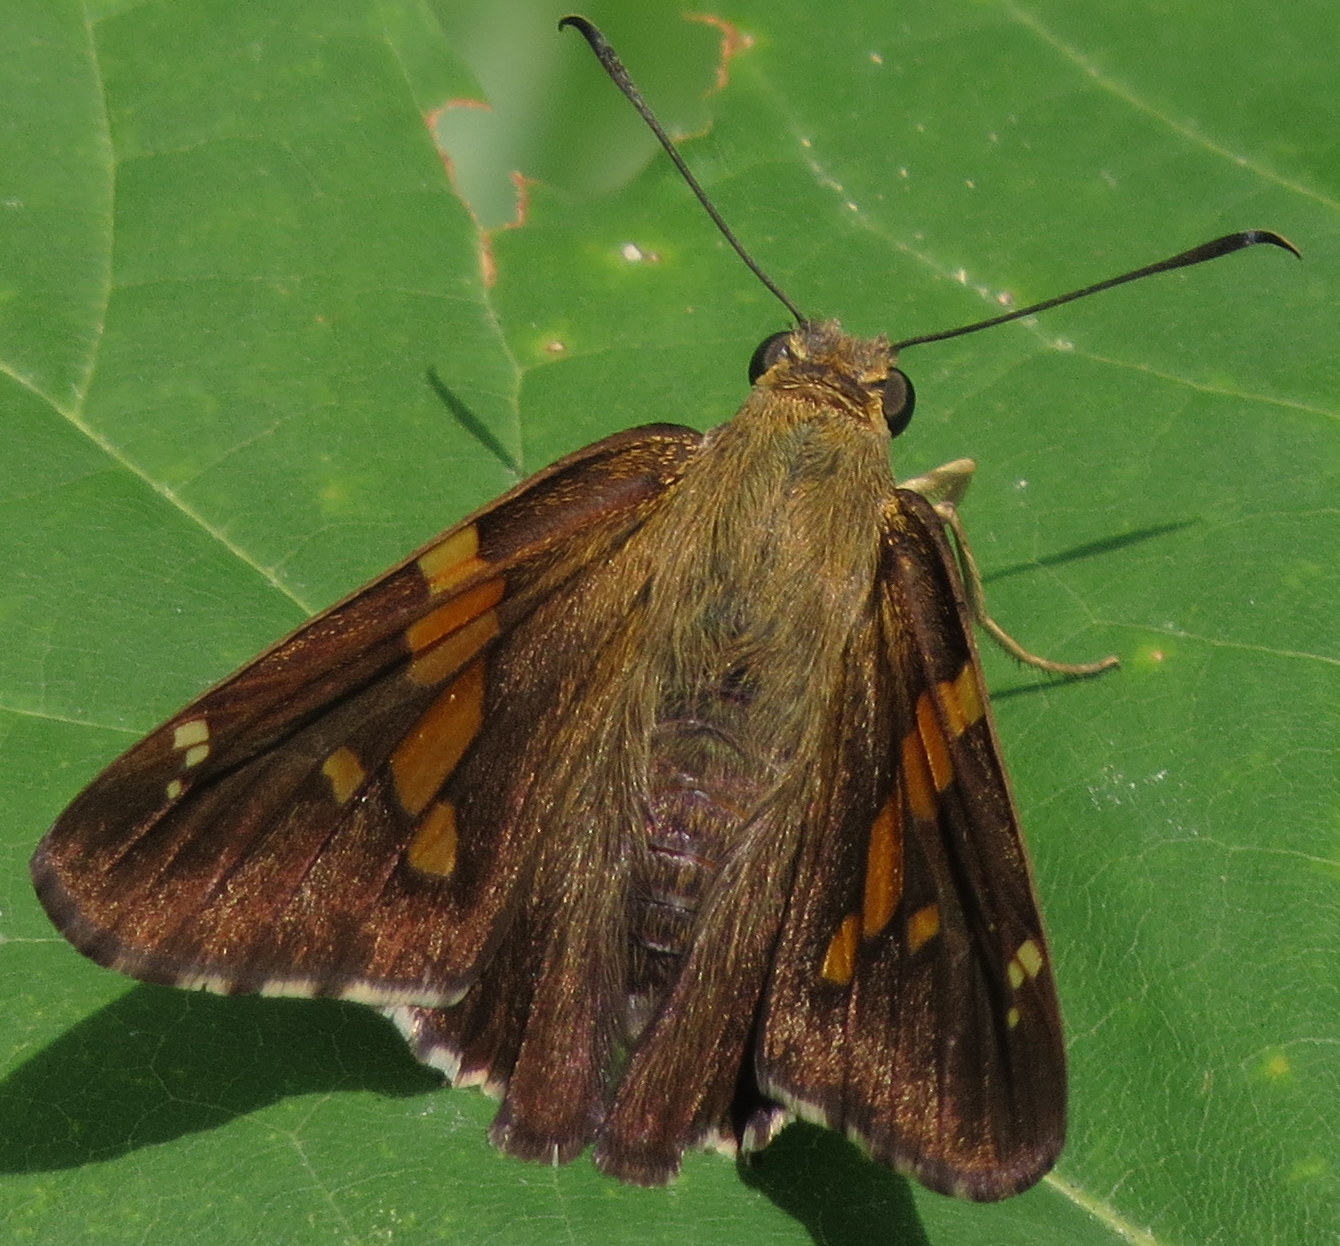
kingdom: Animalia
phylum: Arthropoda
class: Insecta
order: Lepidoptera
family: Hesperiidae
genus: Epargyreus
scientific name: Epargyreus clarus
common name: Silver-spotted skipper
